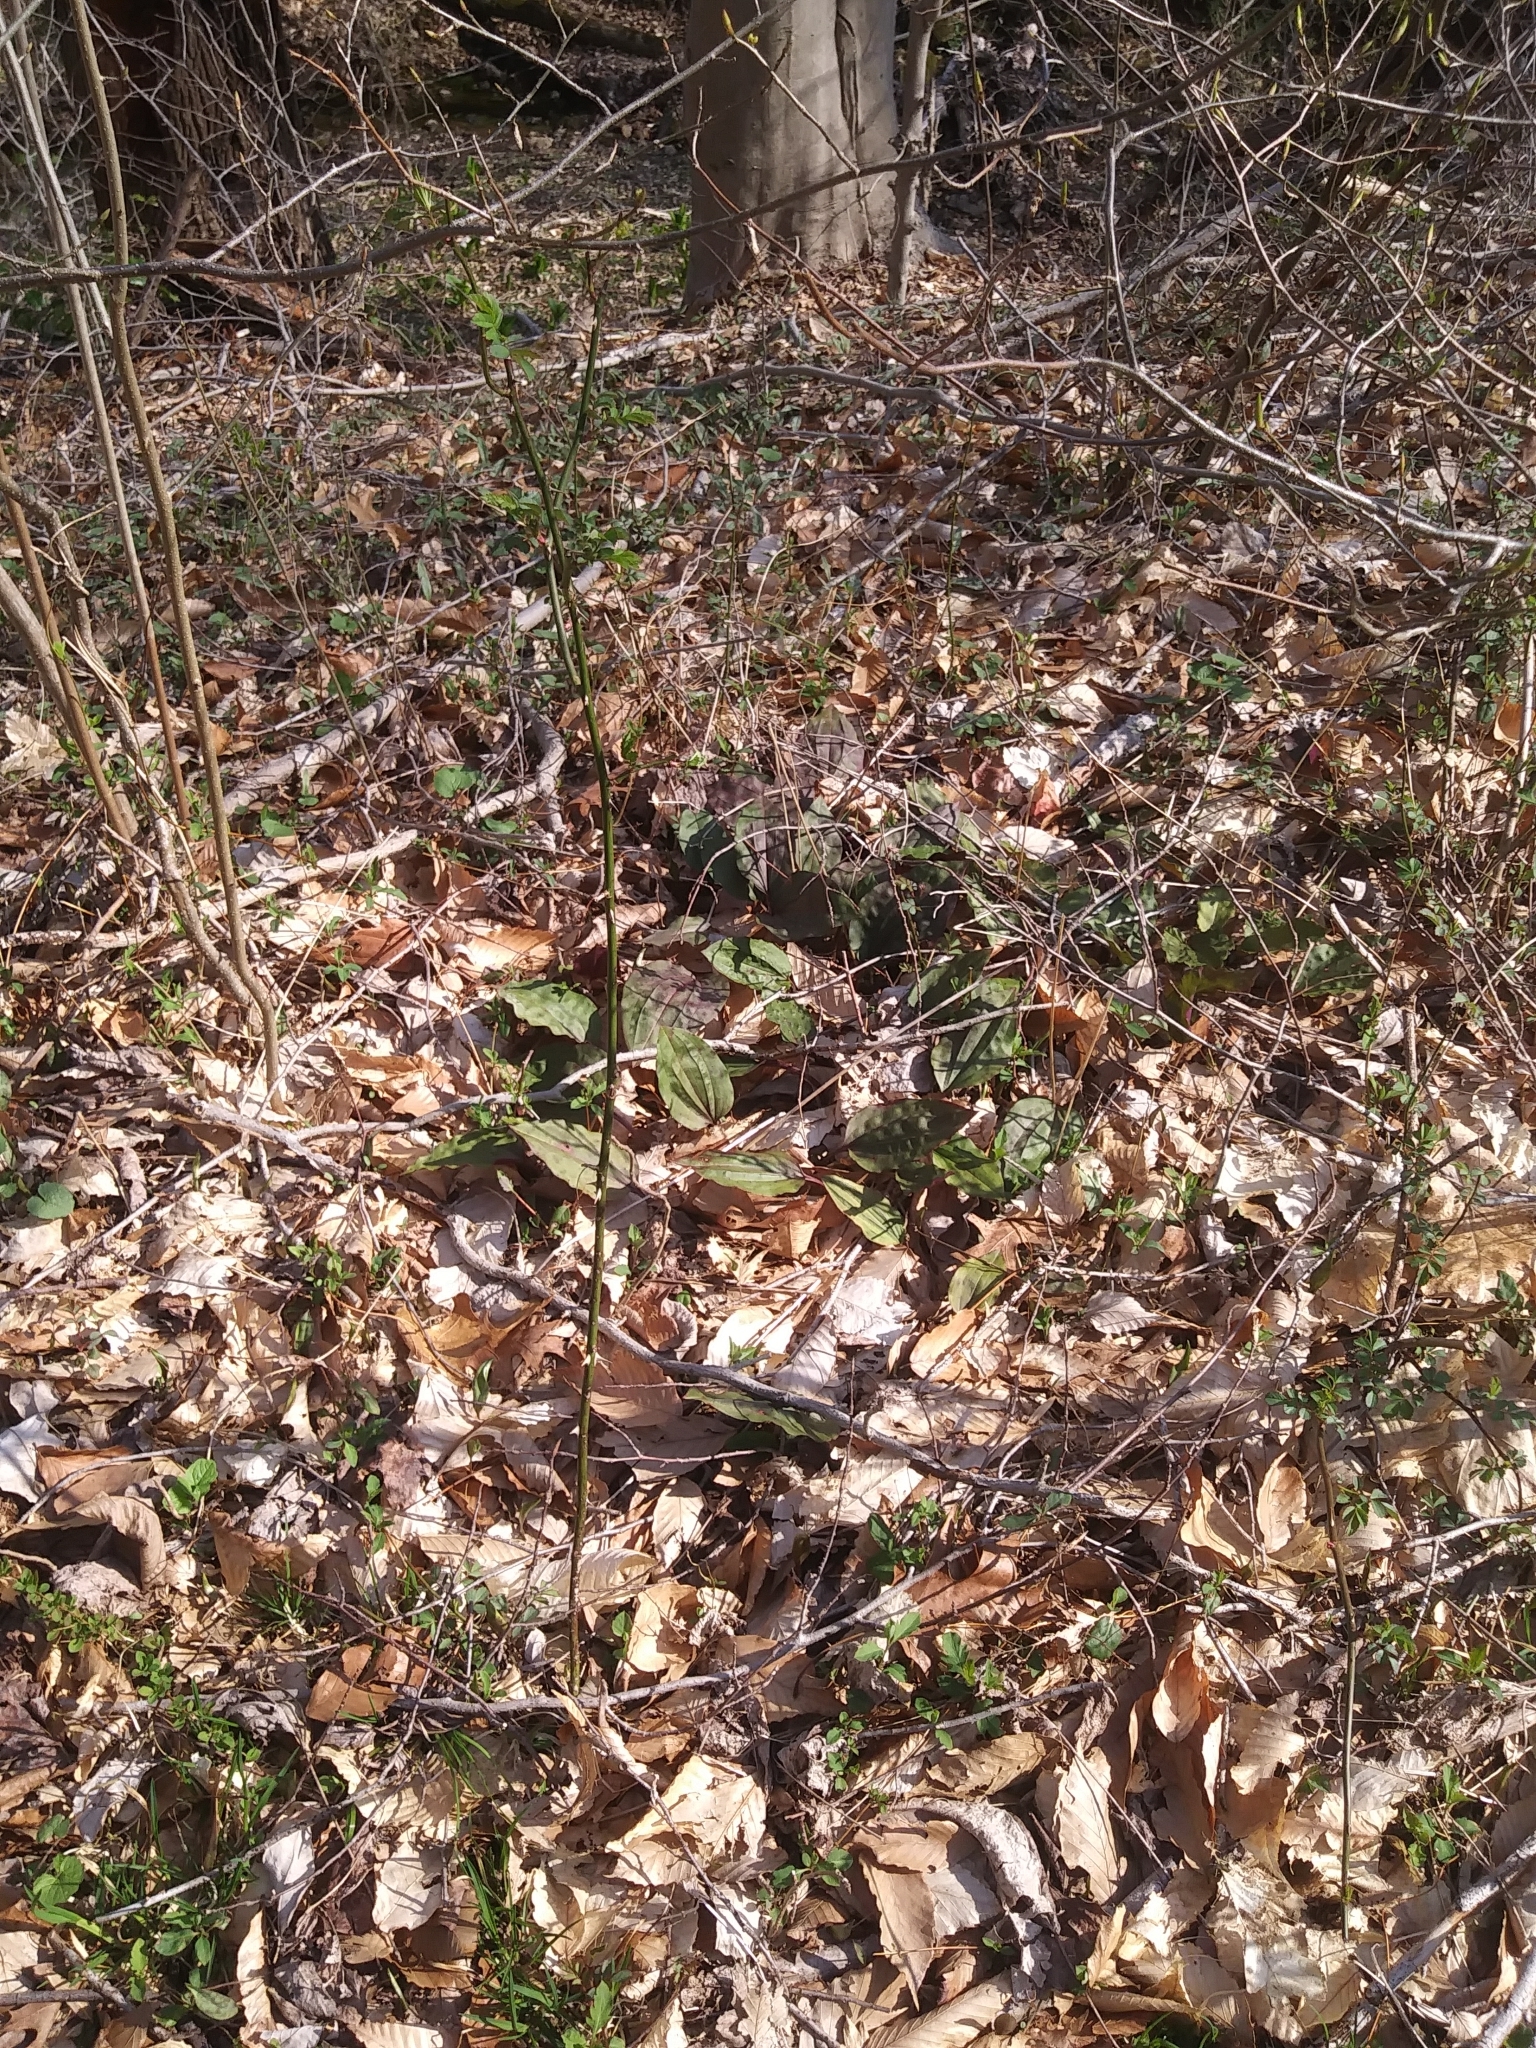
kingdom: Plantae
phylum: Tracheophyta
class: Liliopsida
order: Asparagales
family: Orchidaceae
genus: Tipularia
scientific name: Tipularia discolor
